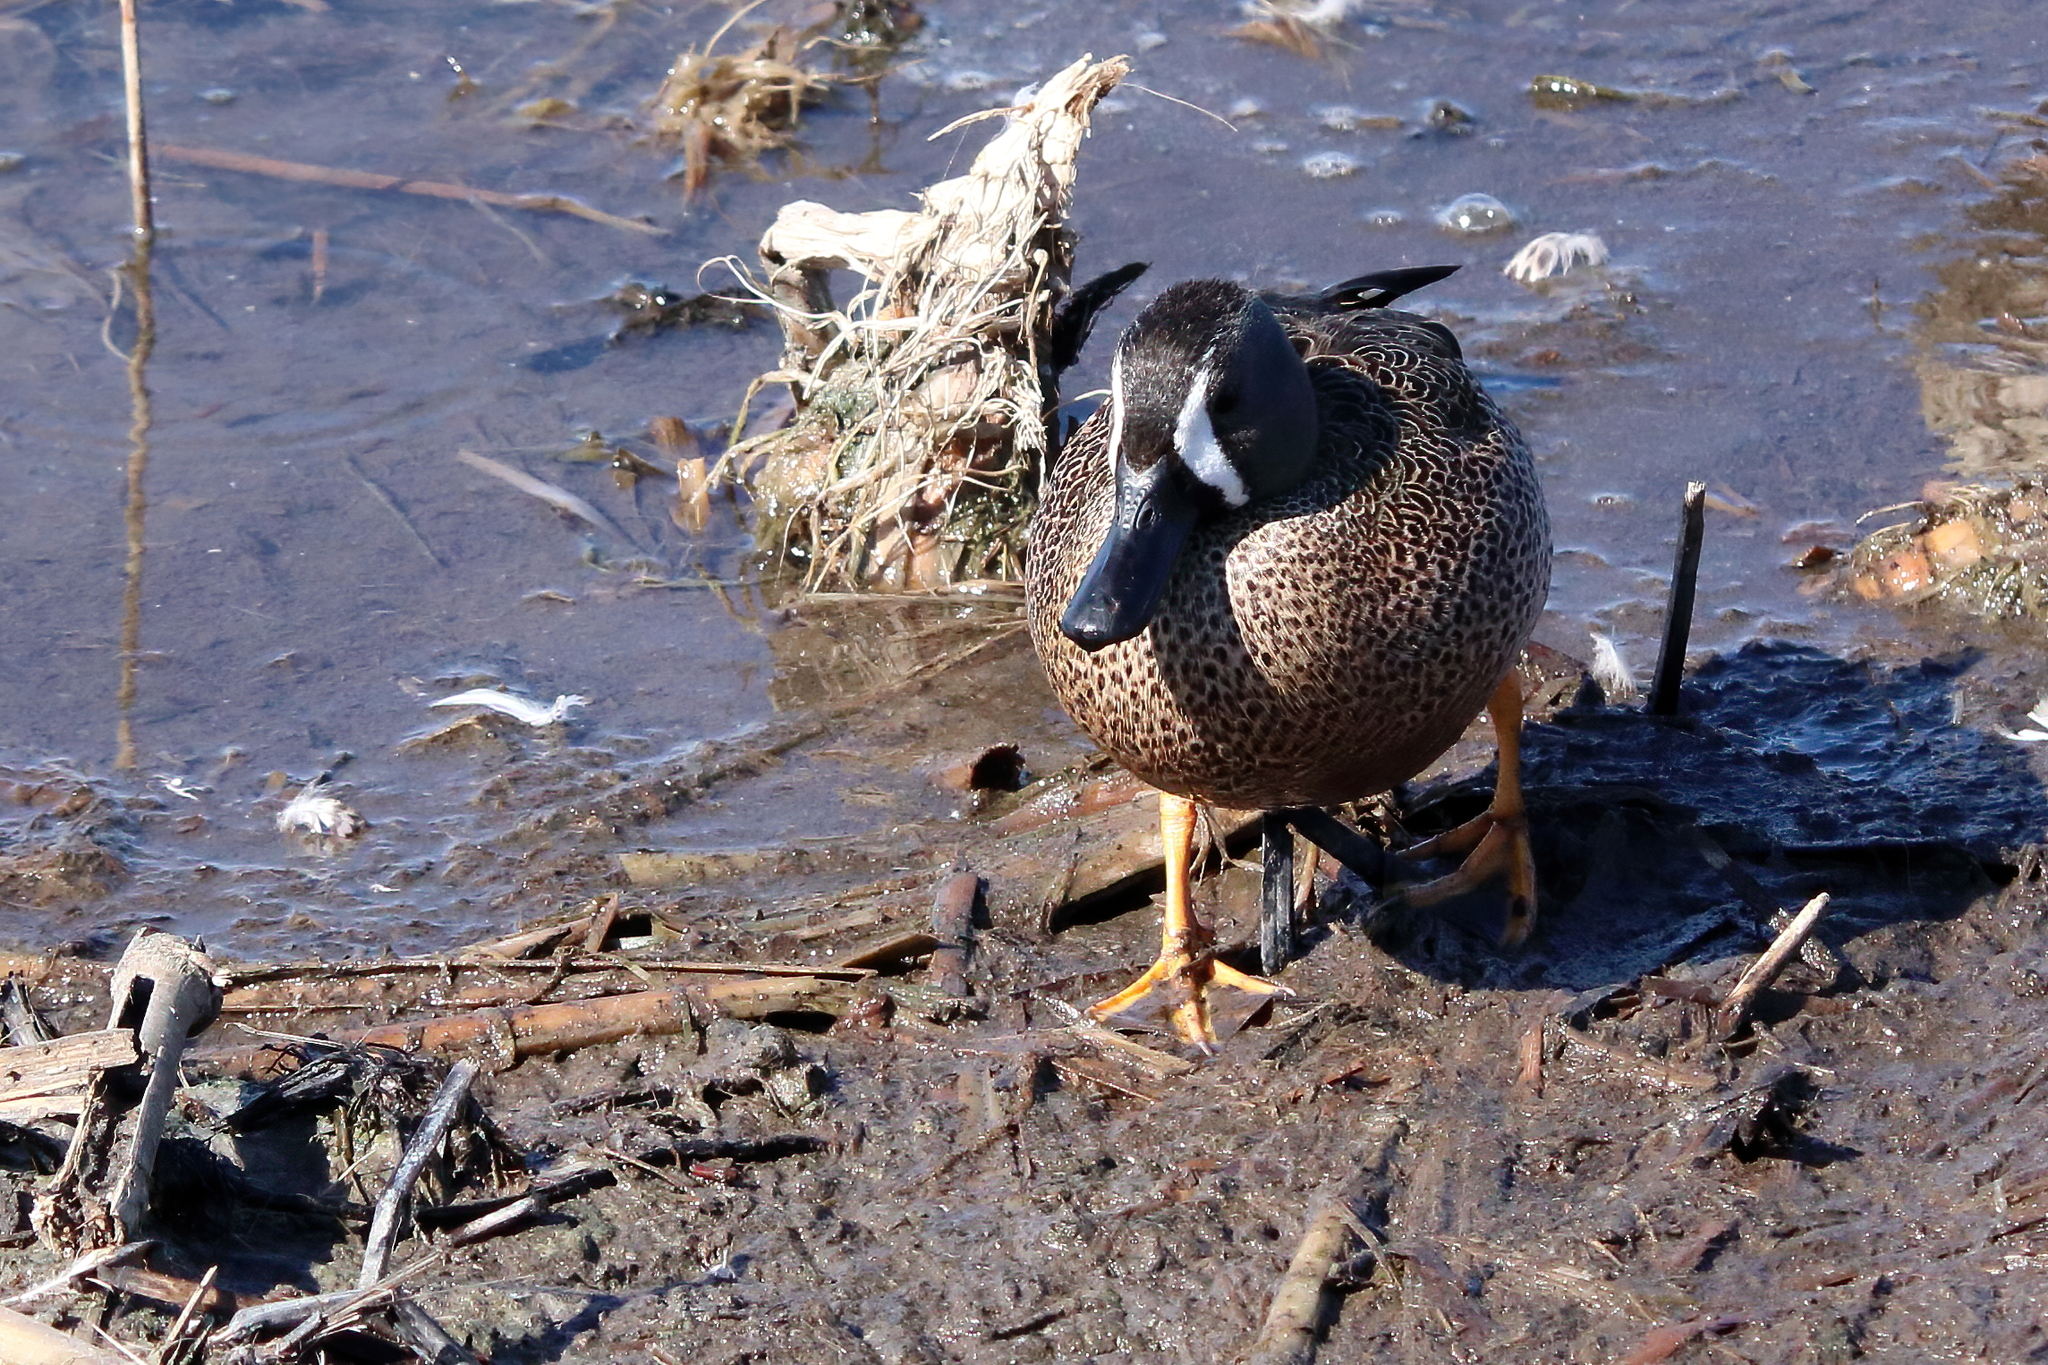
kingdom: Animalia
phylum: Chordata
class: Aves
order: Anseriformes
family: Anatidae
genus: Spatula
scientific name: Spatula discors
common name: Blue-winged teal
